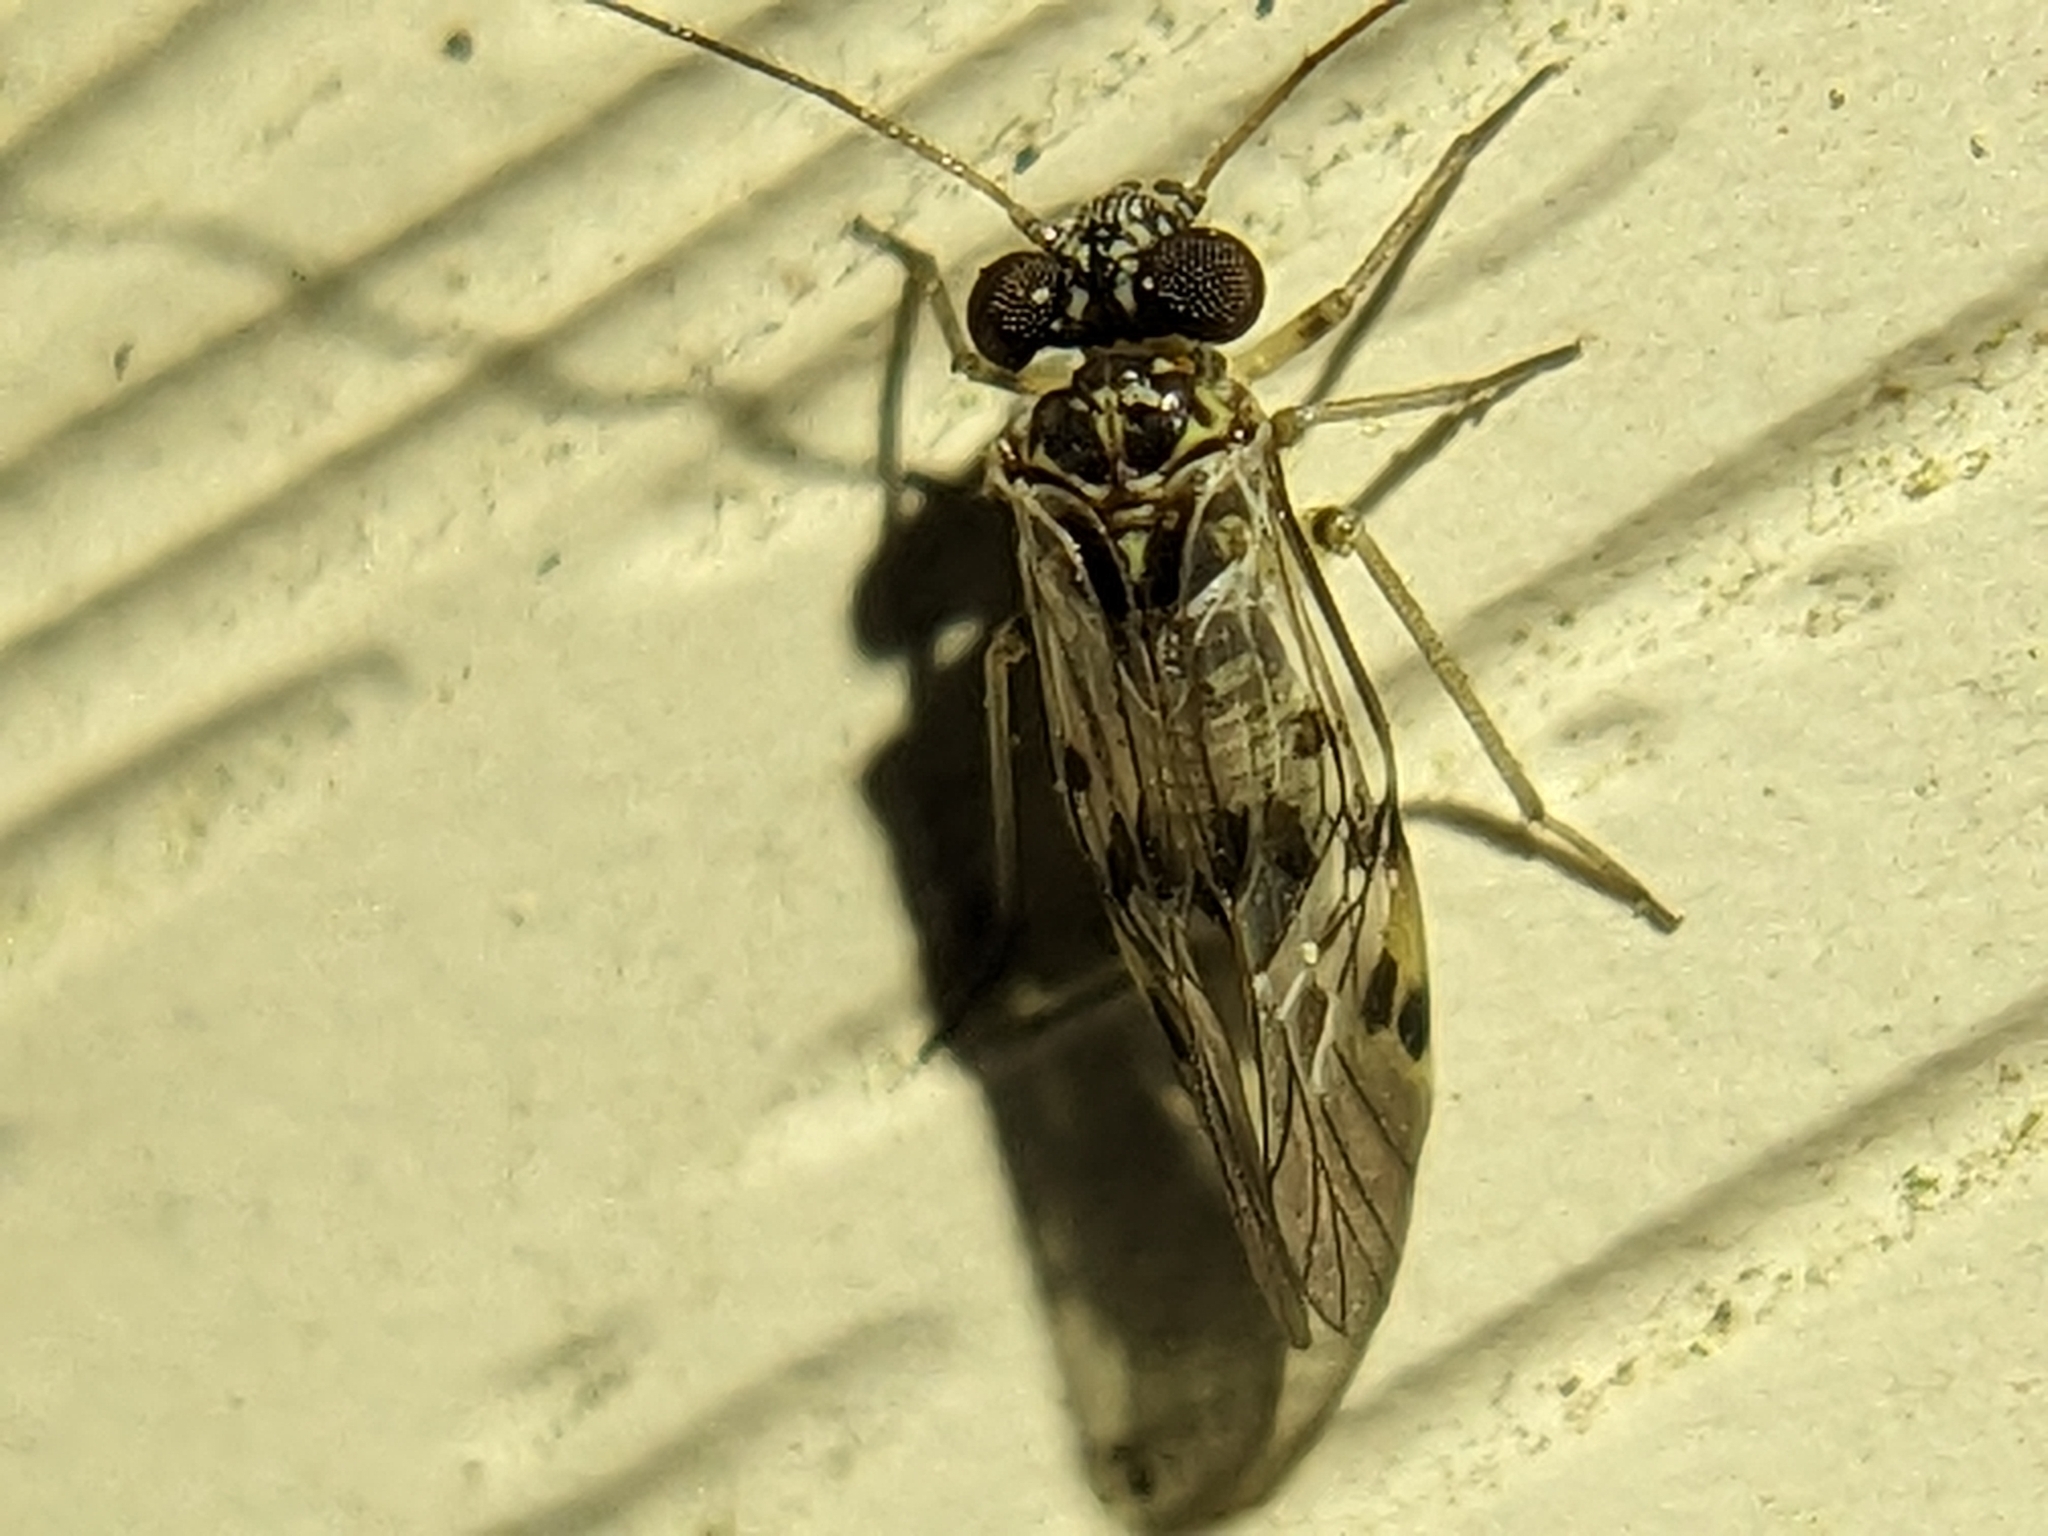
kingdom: Animalia
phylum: Arthropoda
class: Insecta
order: Psocodea
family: Psocidae
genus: Indiopsocus
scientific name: Indiopsocus lanceolatus
